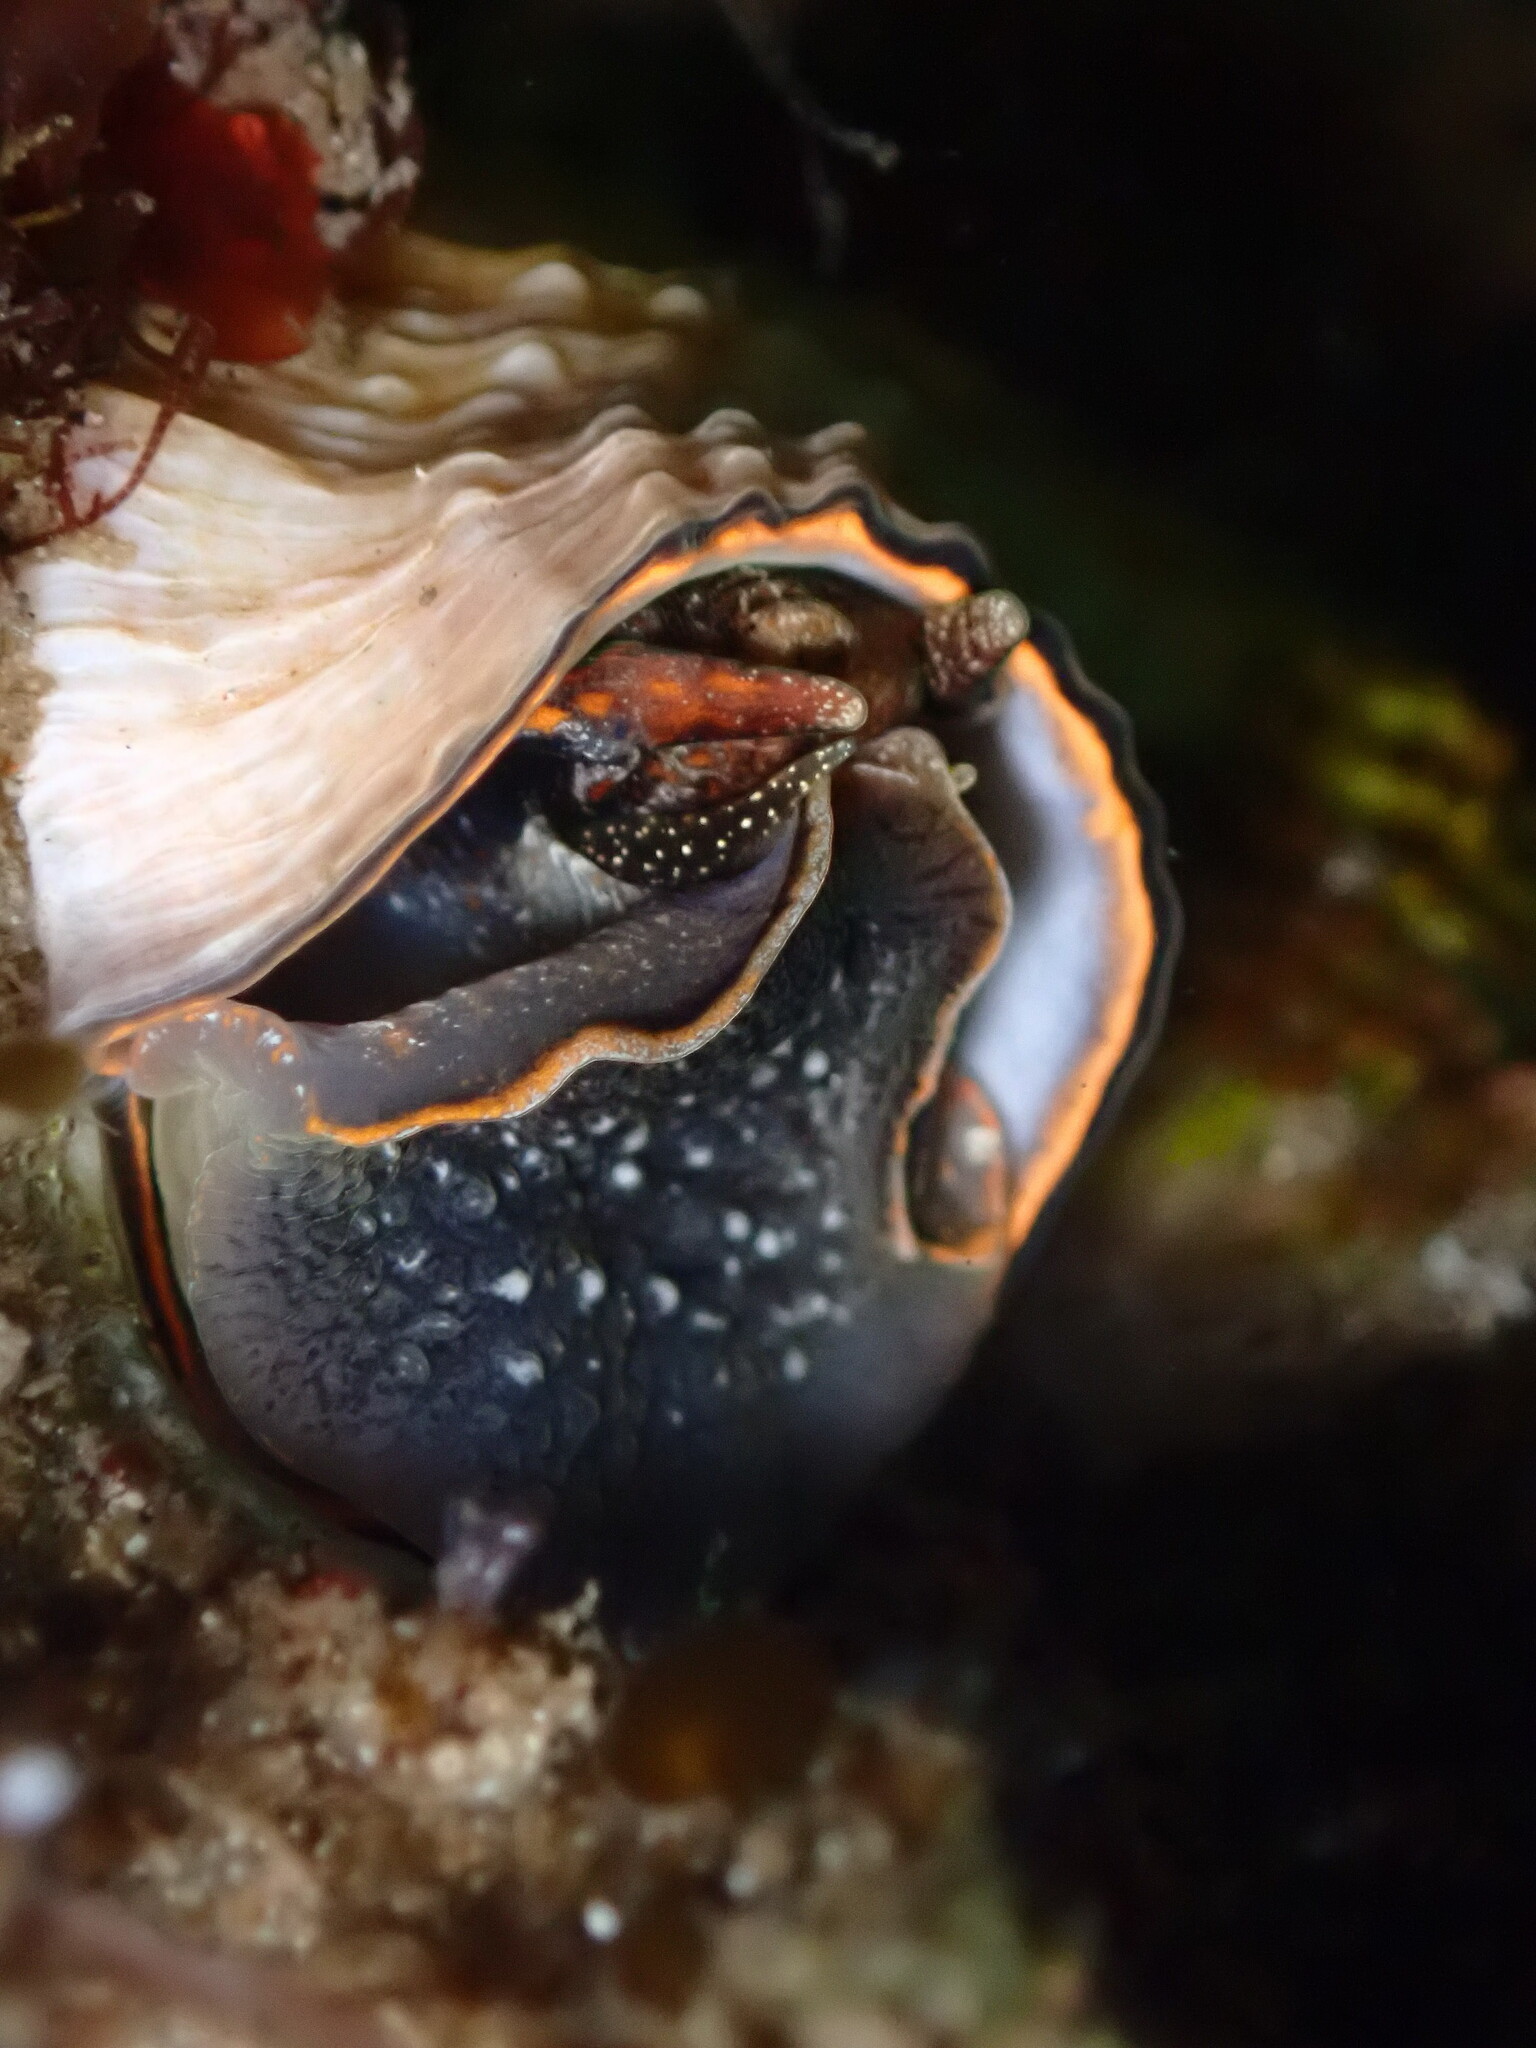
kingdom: Animalia
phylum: Mollusca
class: Gastropoda
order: Littorinimorpha
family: Vermetidae
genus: Thylacodes
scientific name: Thylacodes squamigerus
